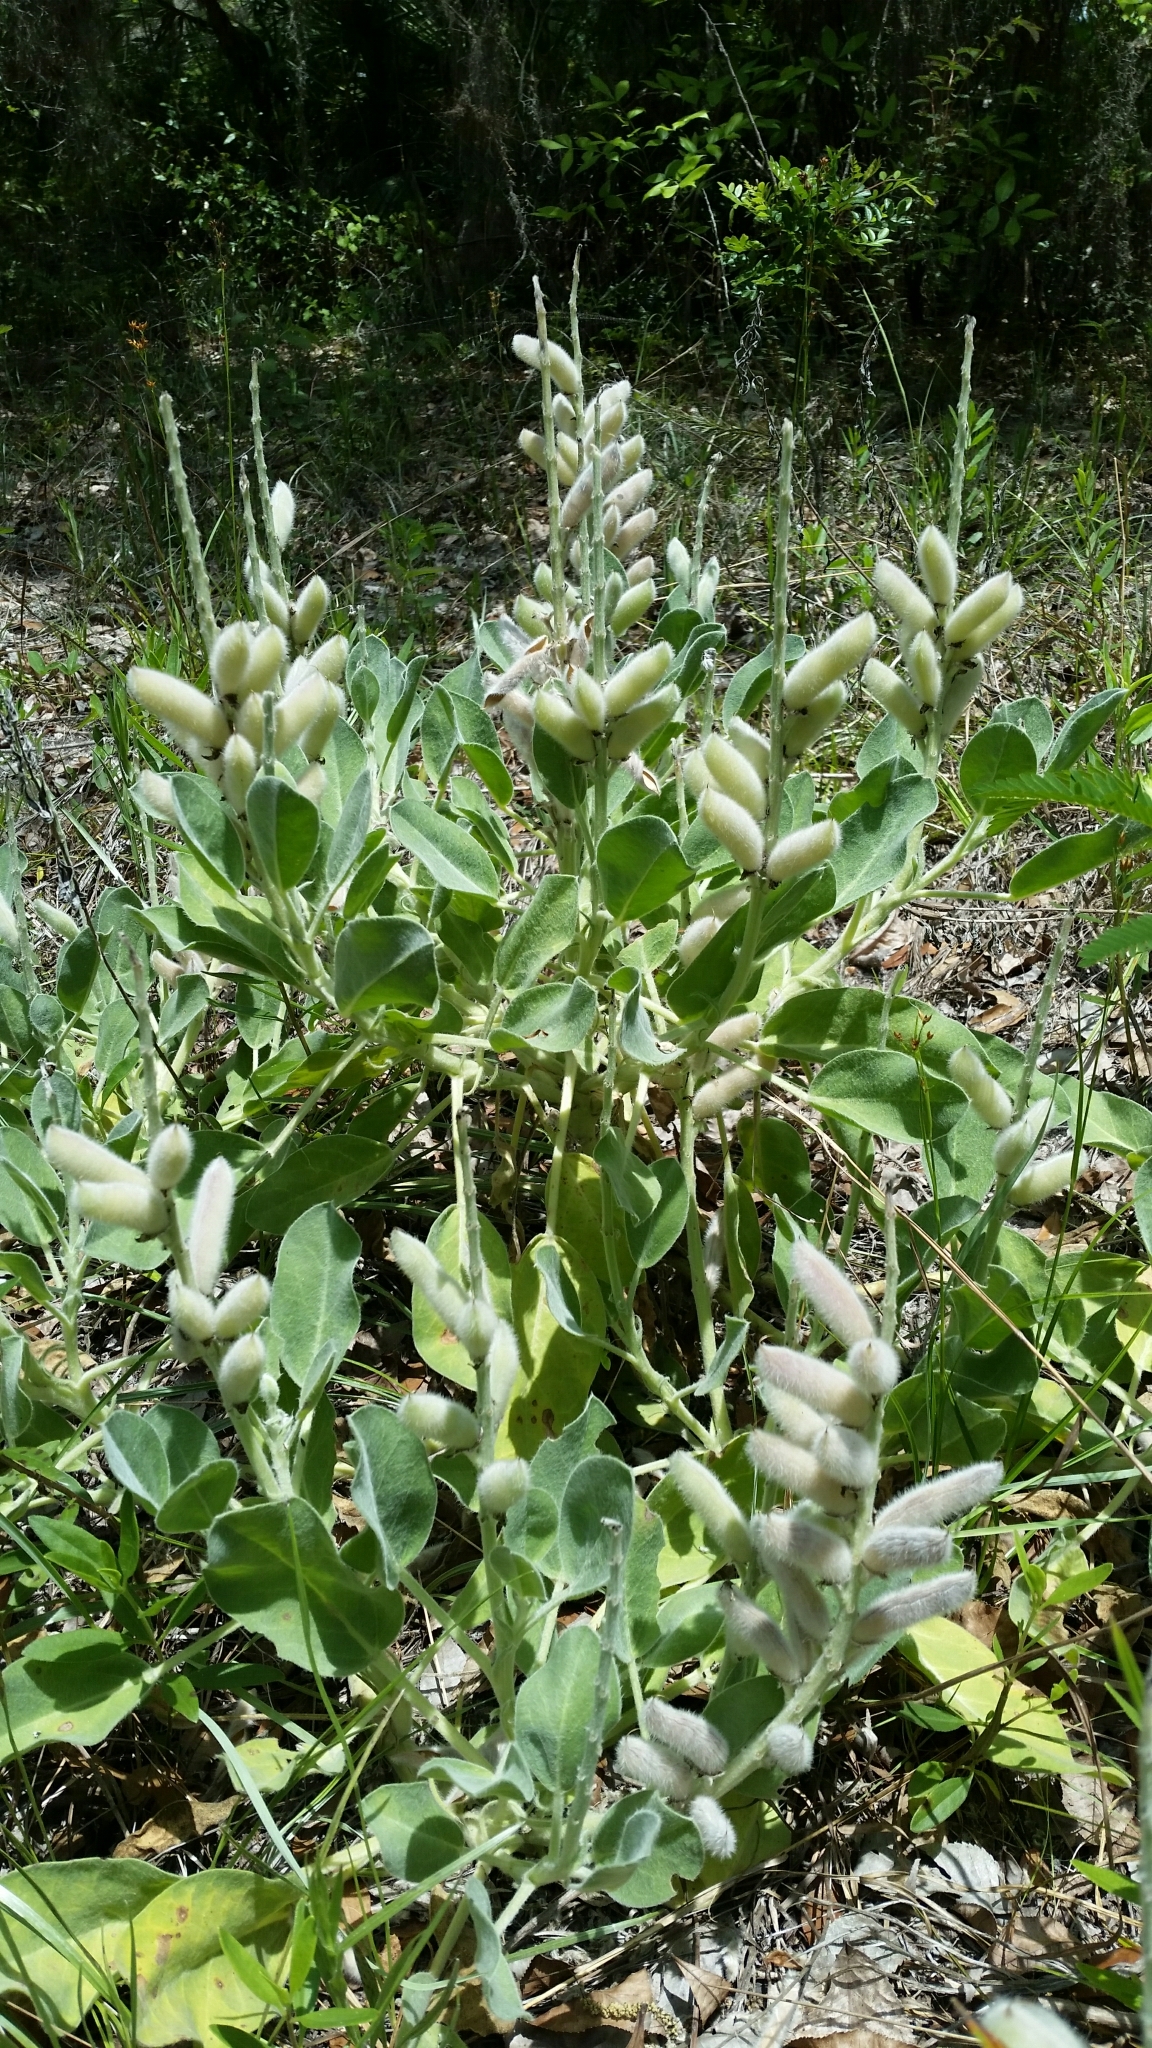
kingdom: Plantae
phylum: Tracheophyta
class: Magnoliopsida
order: Fabales
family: Fabaceae
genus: Lupinus
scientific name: Lupinus
